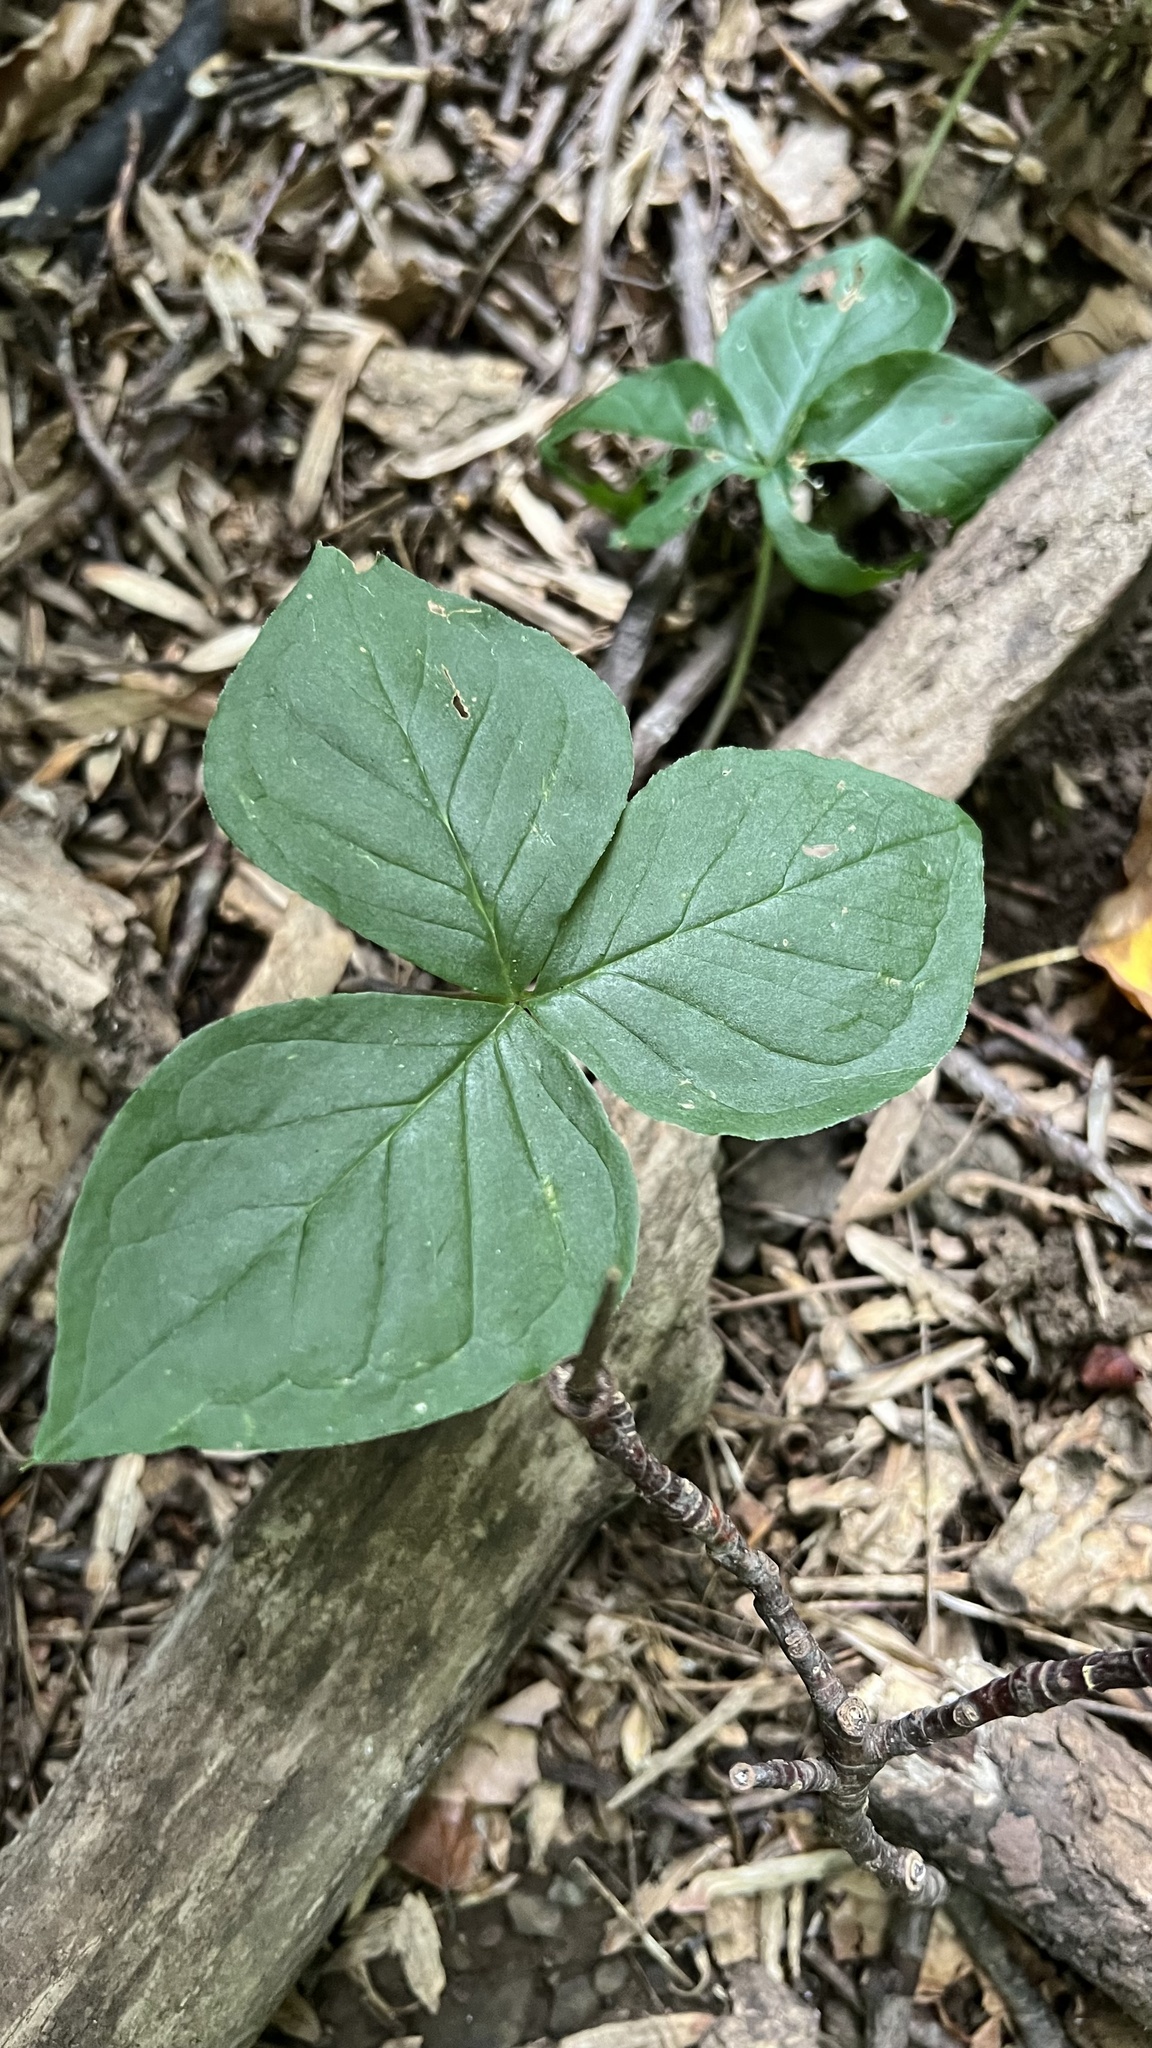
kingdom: Plantae
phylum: Tracheophyta
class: Liliopsida
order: Alismatales
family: Araceae
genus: Arisaema
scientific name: Arisaema triphyllum
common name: Jack-in-the-pulpit
